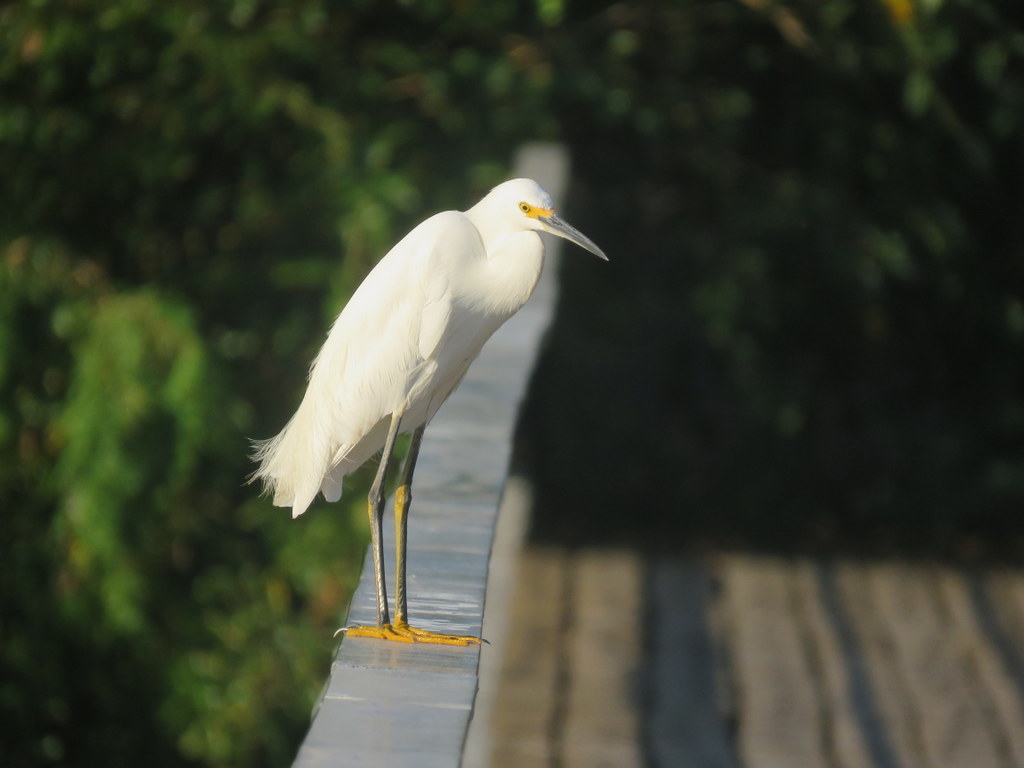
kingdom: Animalia
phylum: Chordata
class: Aves
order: Pelecaniformes
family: Ardeidae
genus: Egretta
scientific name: Egretta thula
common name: Snowy egret
